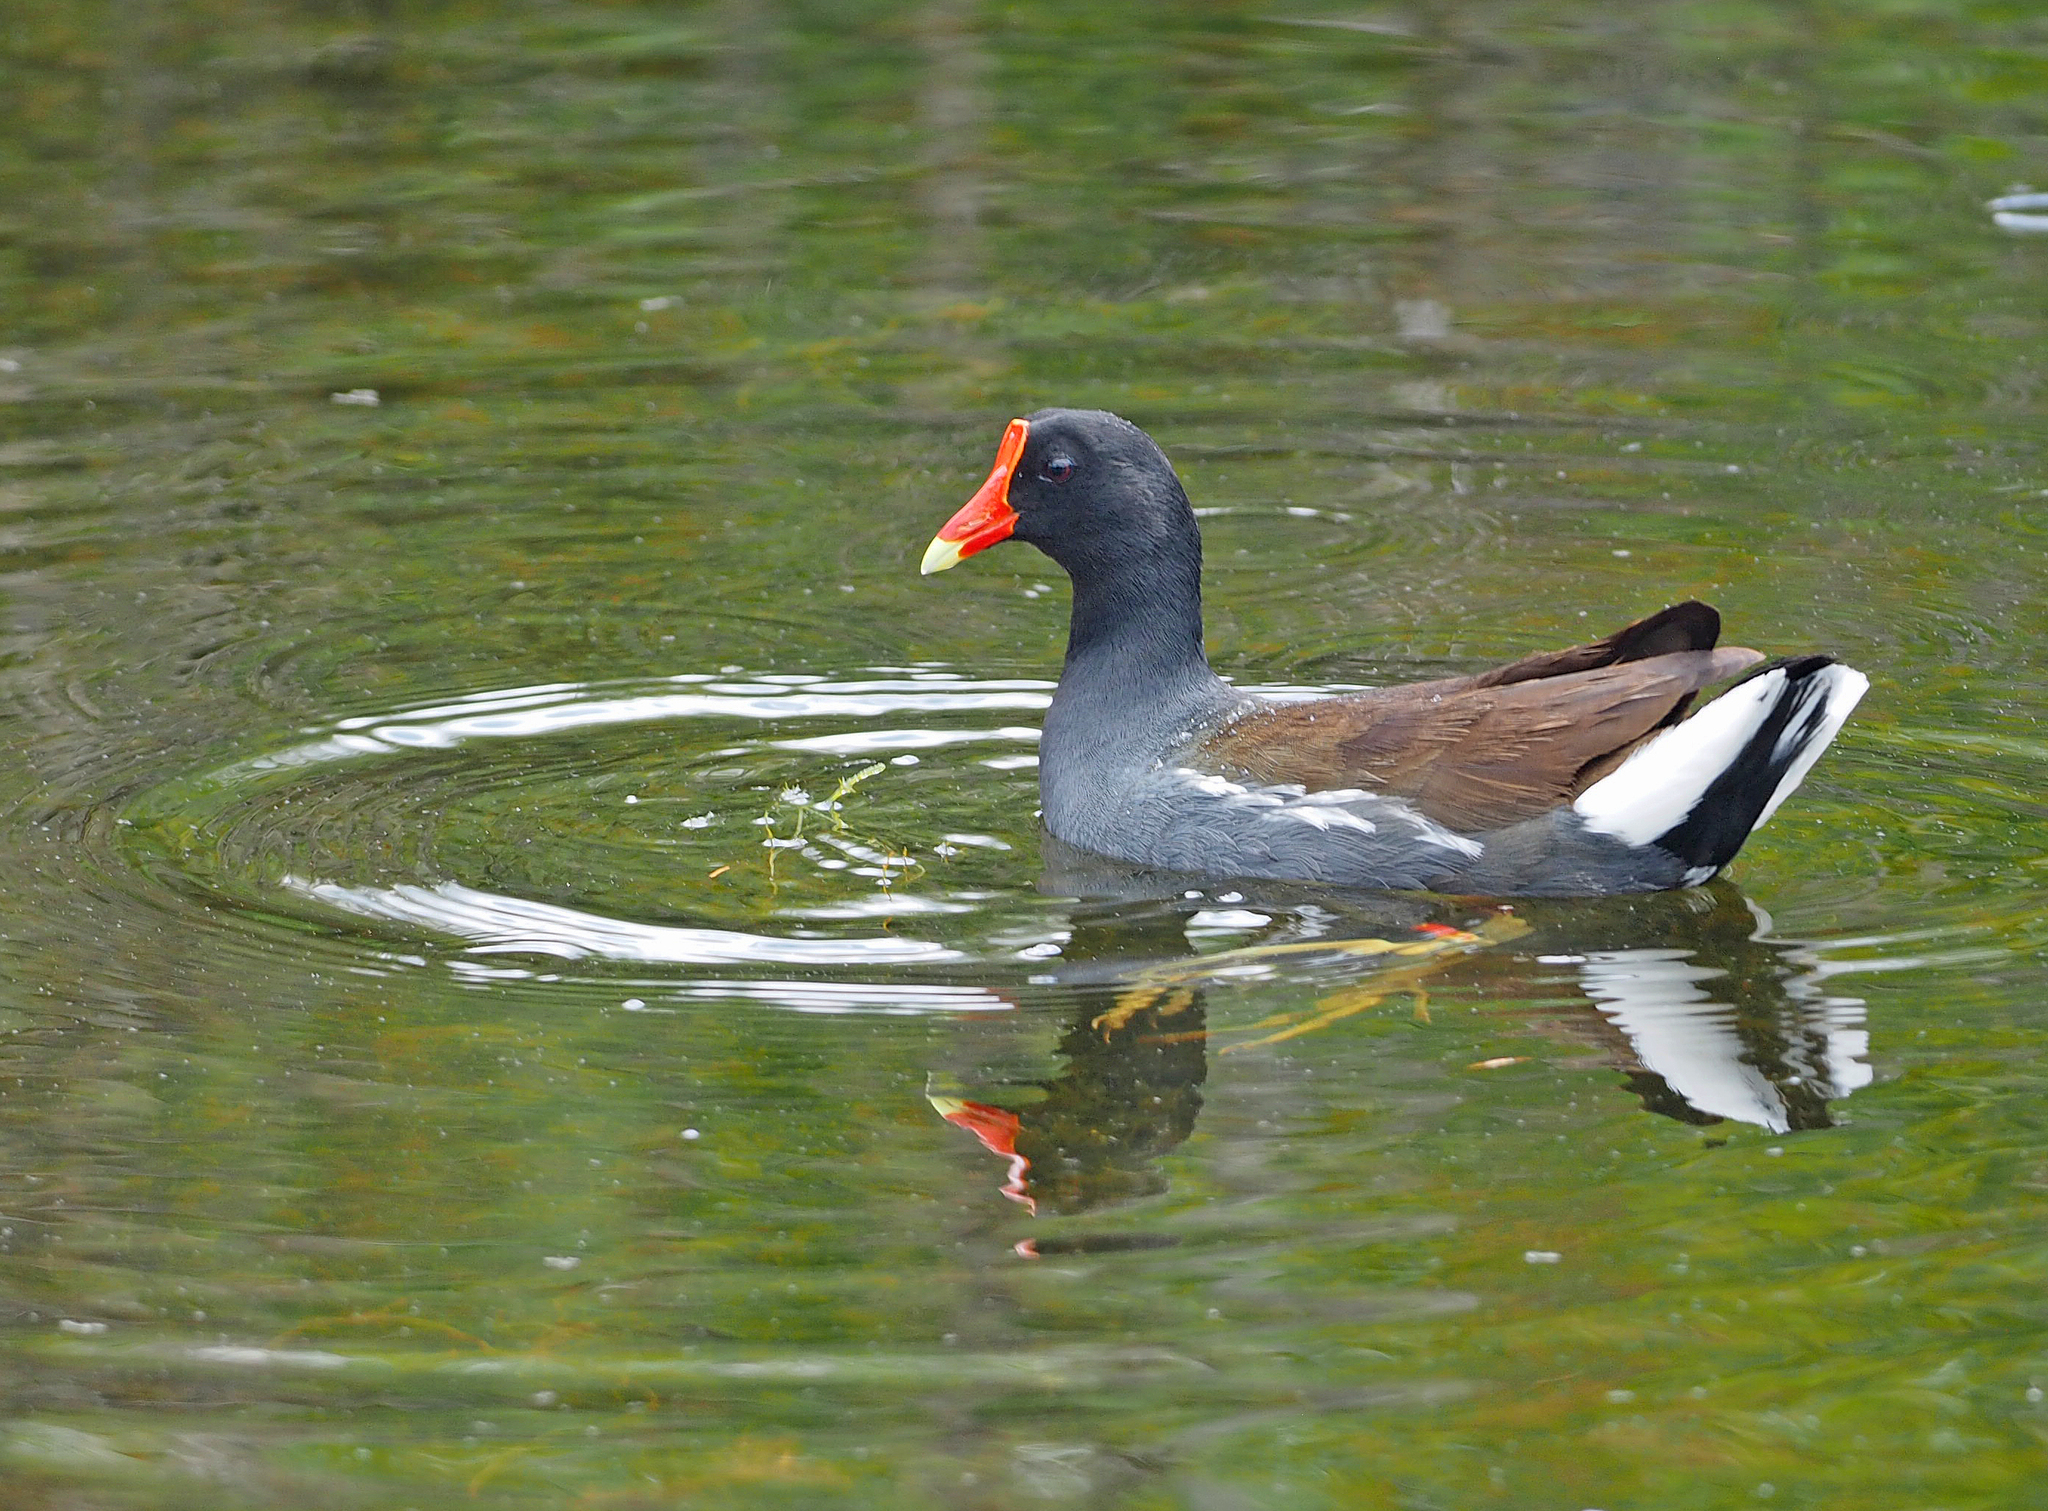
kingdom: Animalia
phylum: Chordata
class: Aves
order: Gruiformes
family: Rallidae
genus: Gallinula
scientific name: Gallinula chloropus
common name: Common moorhen
